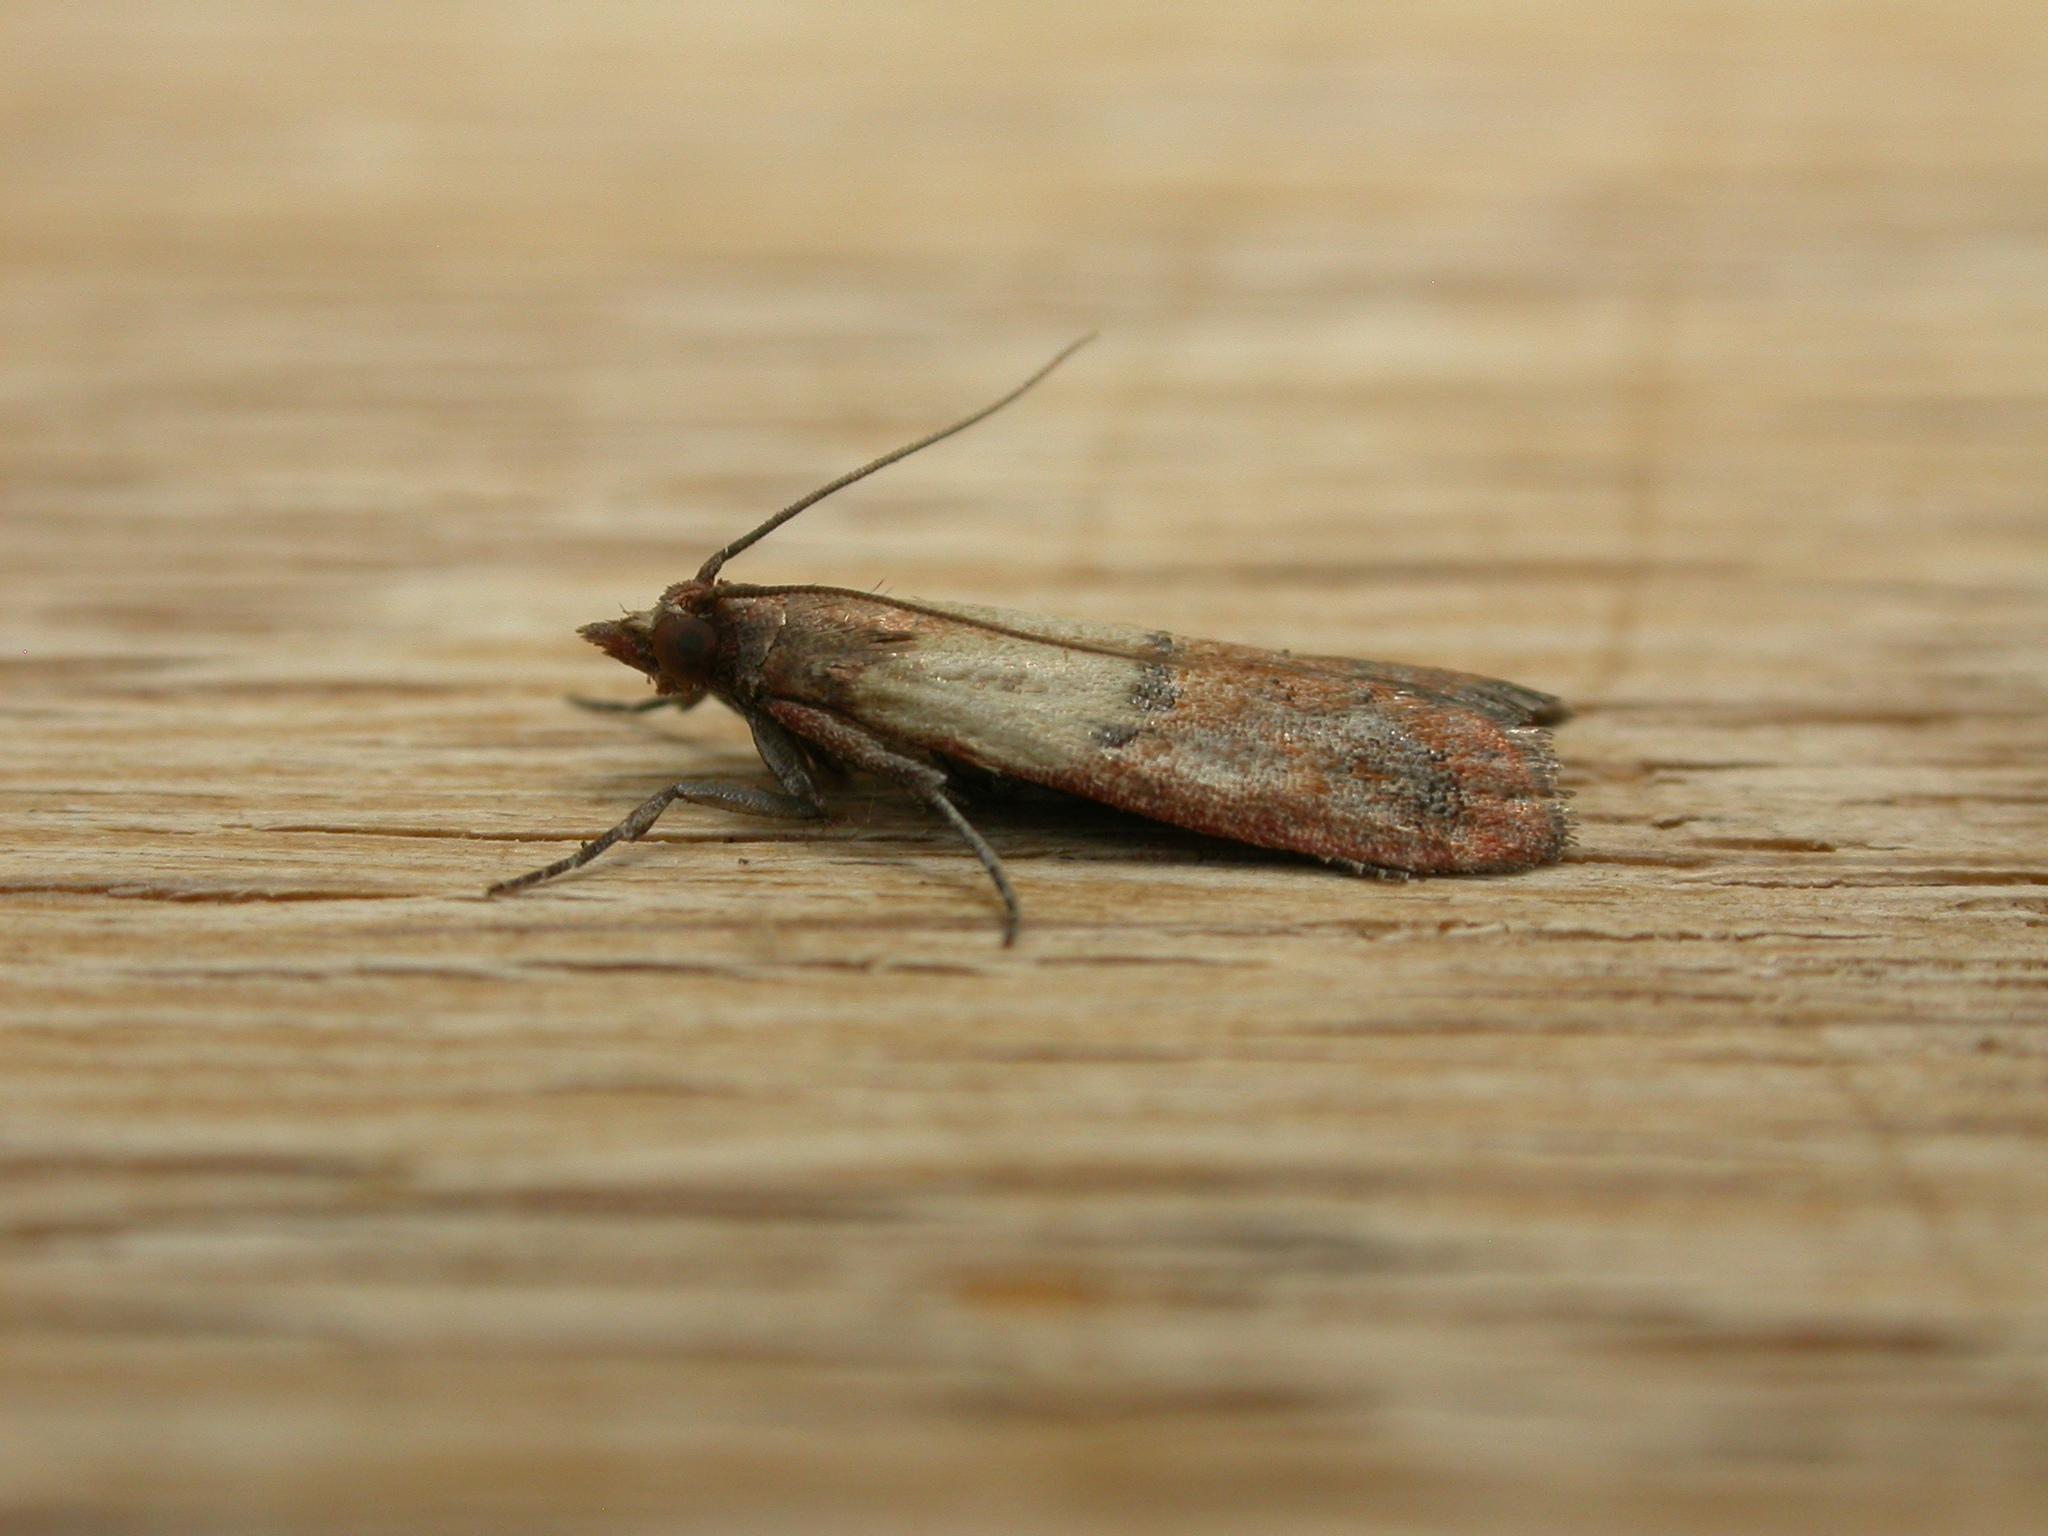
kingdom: Animalia
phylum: Arthropoda
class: Insecta
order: Lepidoptera
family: Pyralidae
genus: Plodia
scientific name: Plodia interpunctella
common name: Indian meal moth
